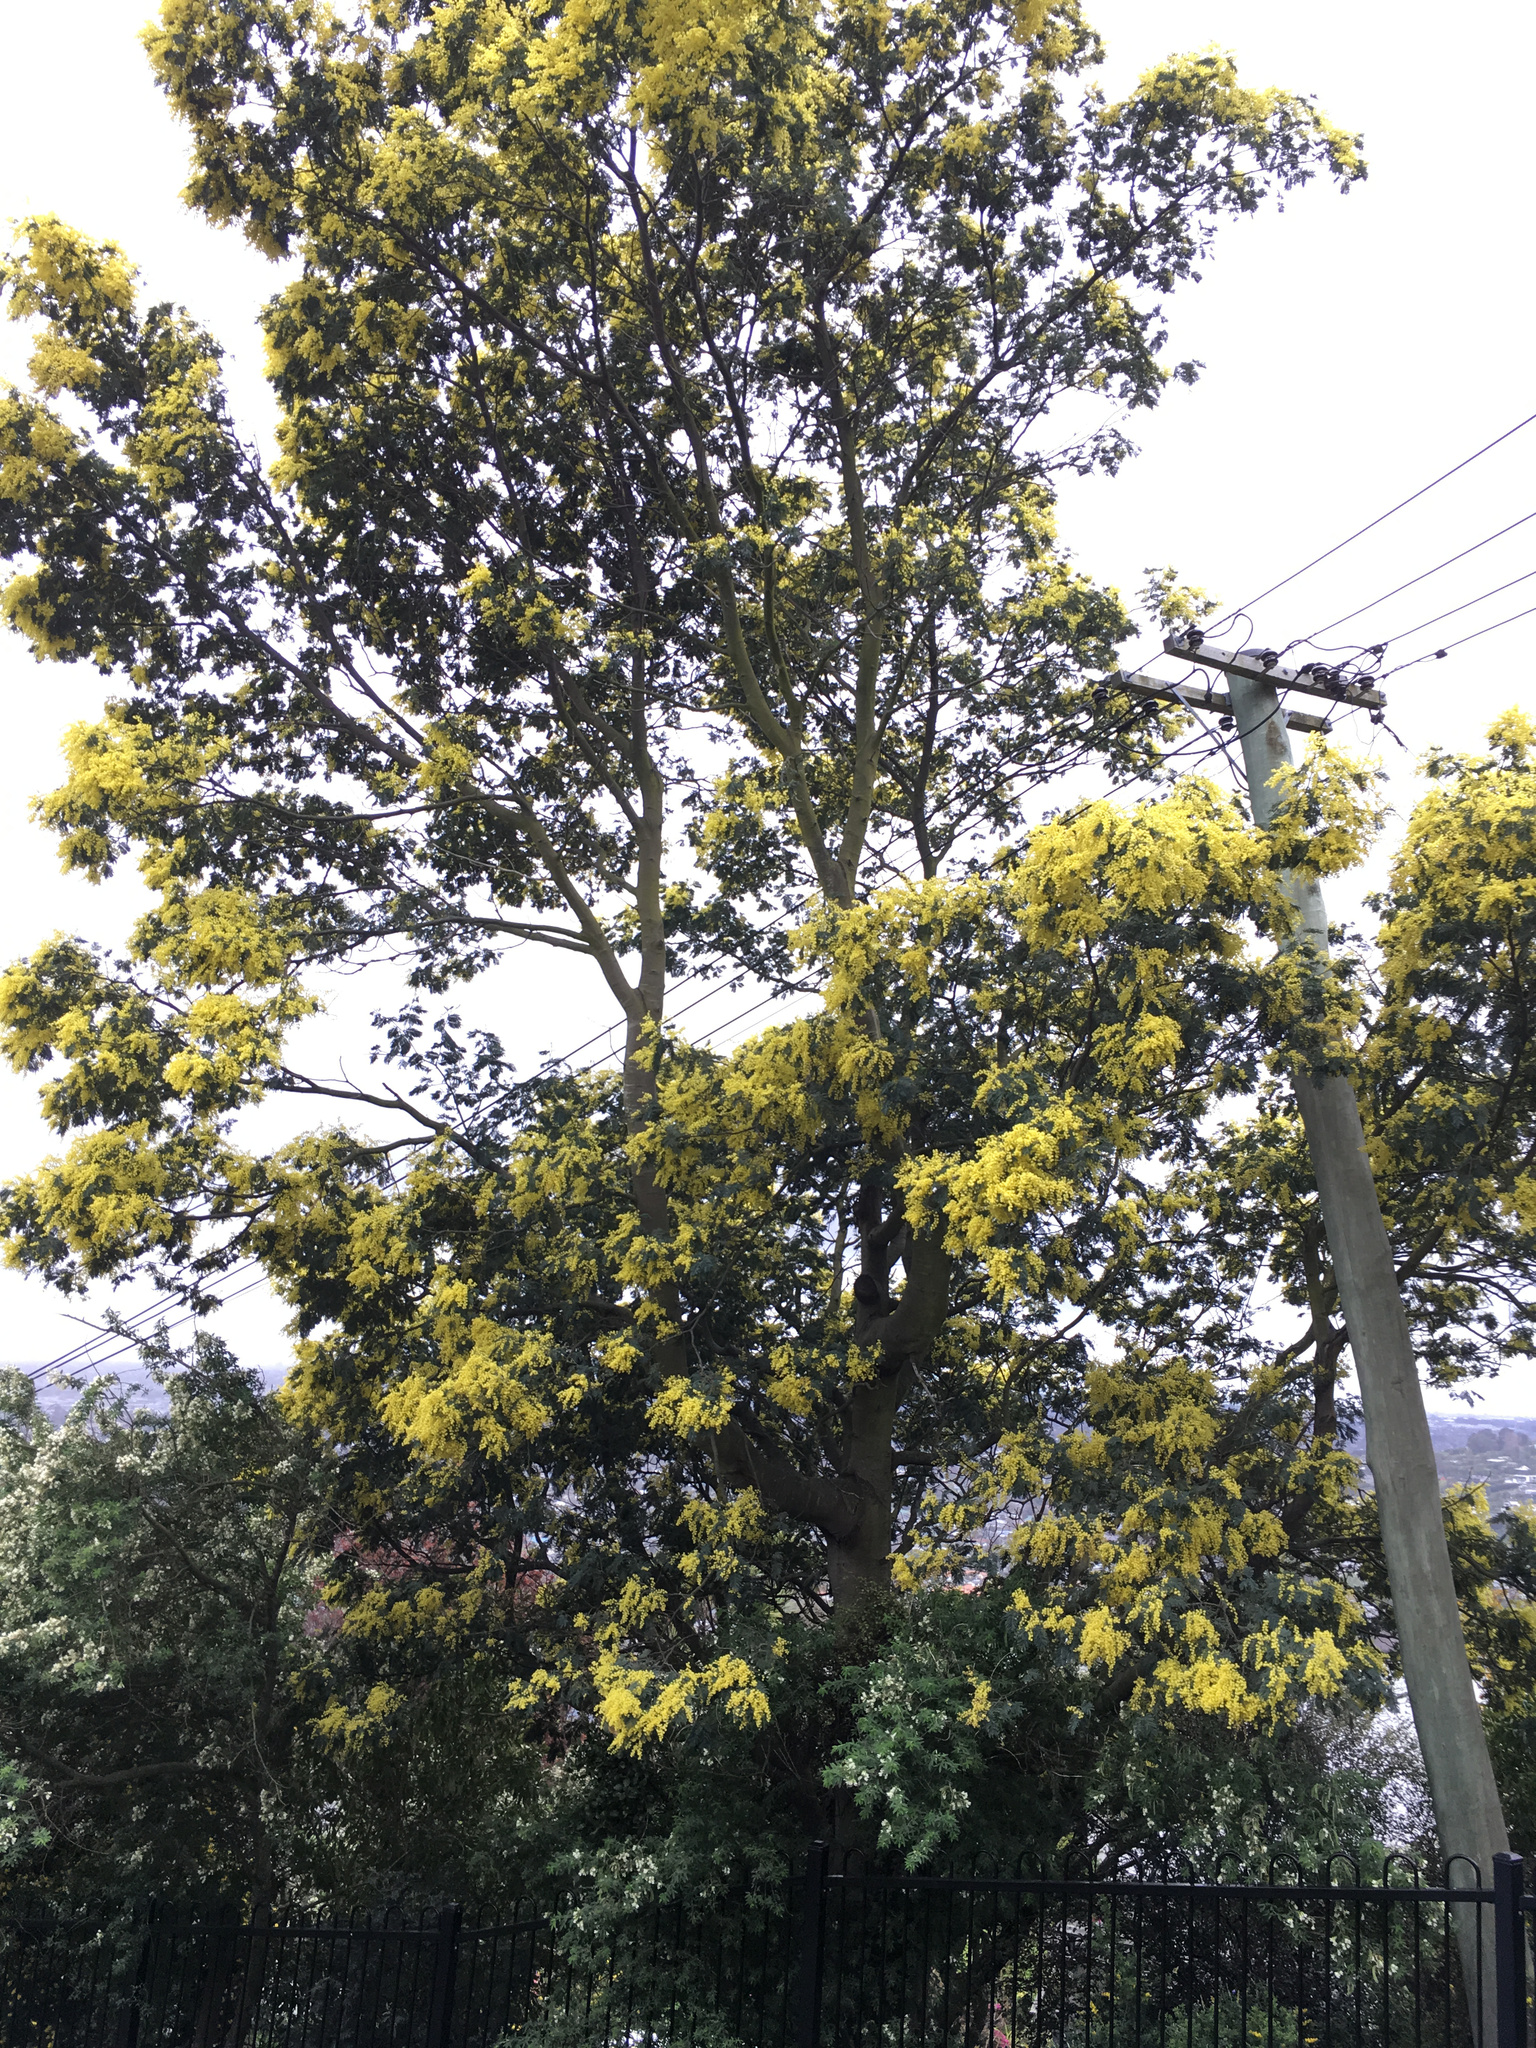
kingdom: Plantae
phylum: Tracheophyta
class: Magnoliopsida
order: Fabales
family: Fabaceae
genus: Acacia
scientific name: Acacia dealbata
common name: Silver wattle
